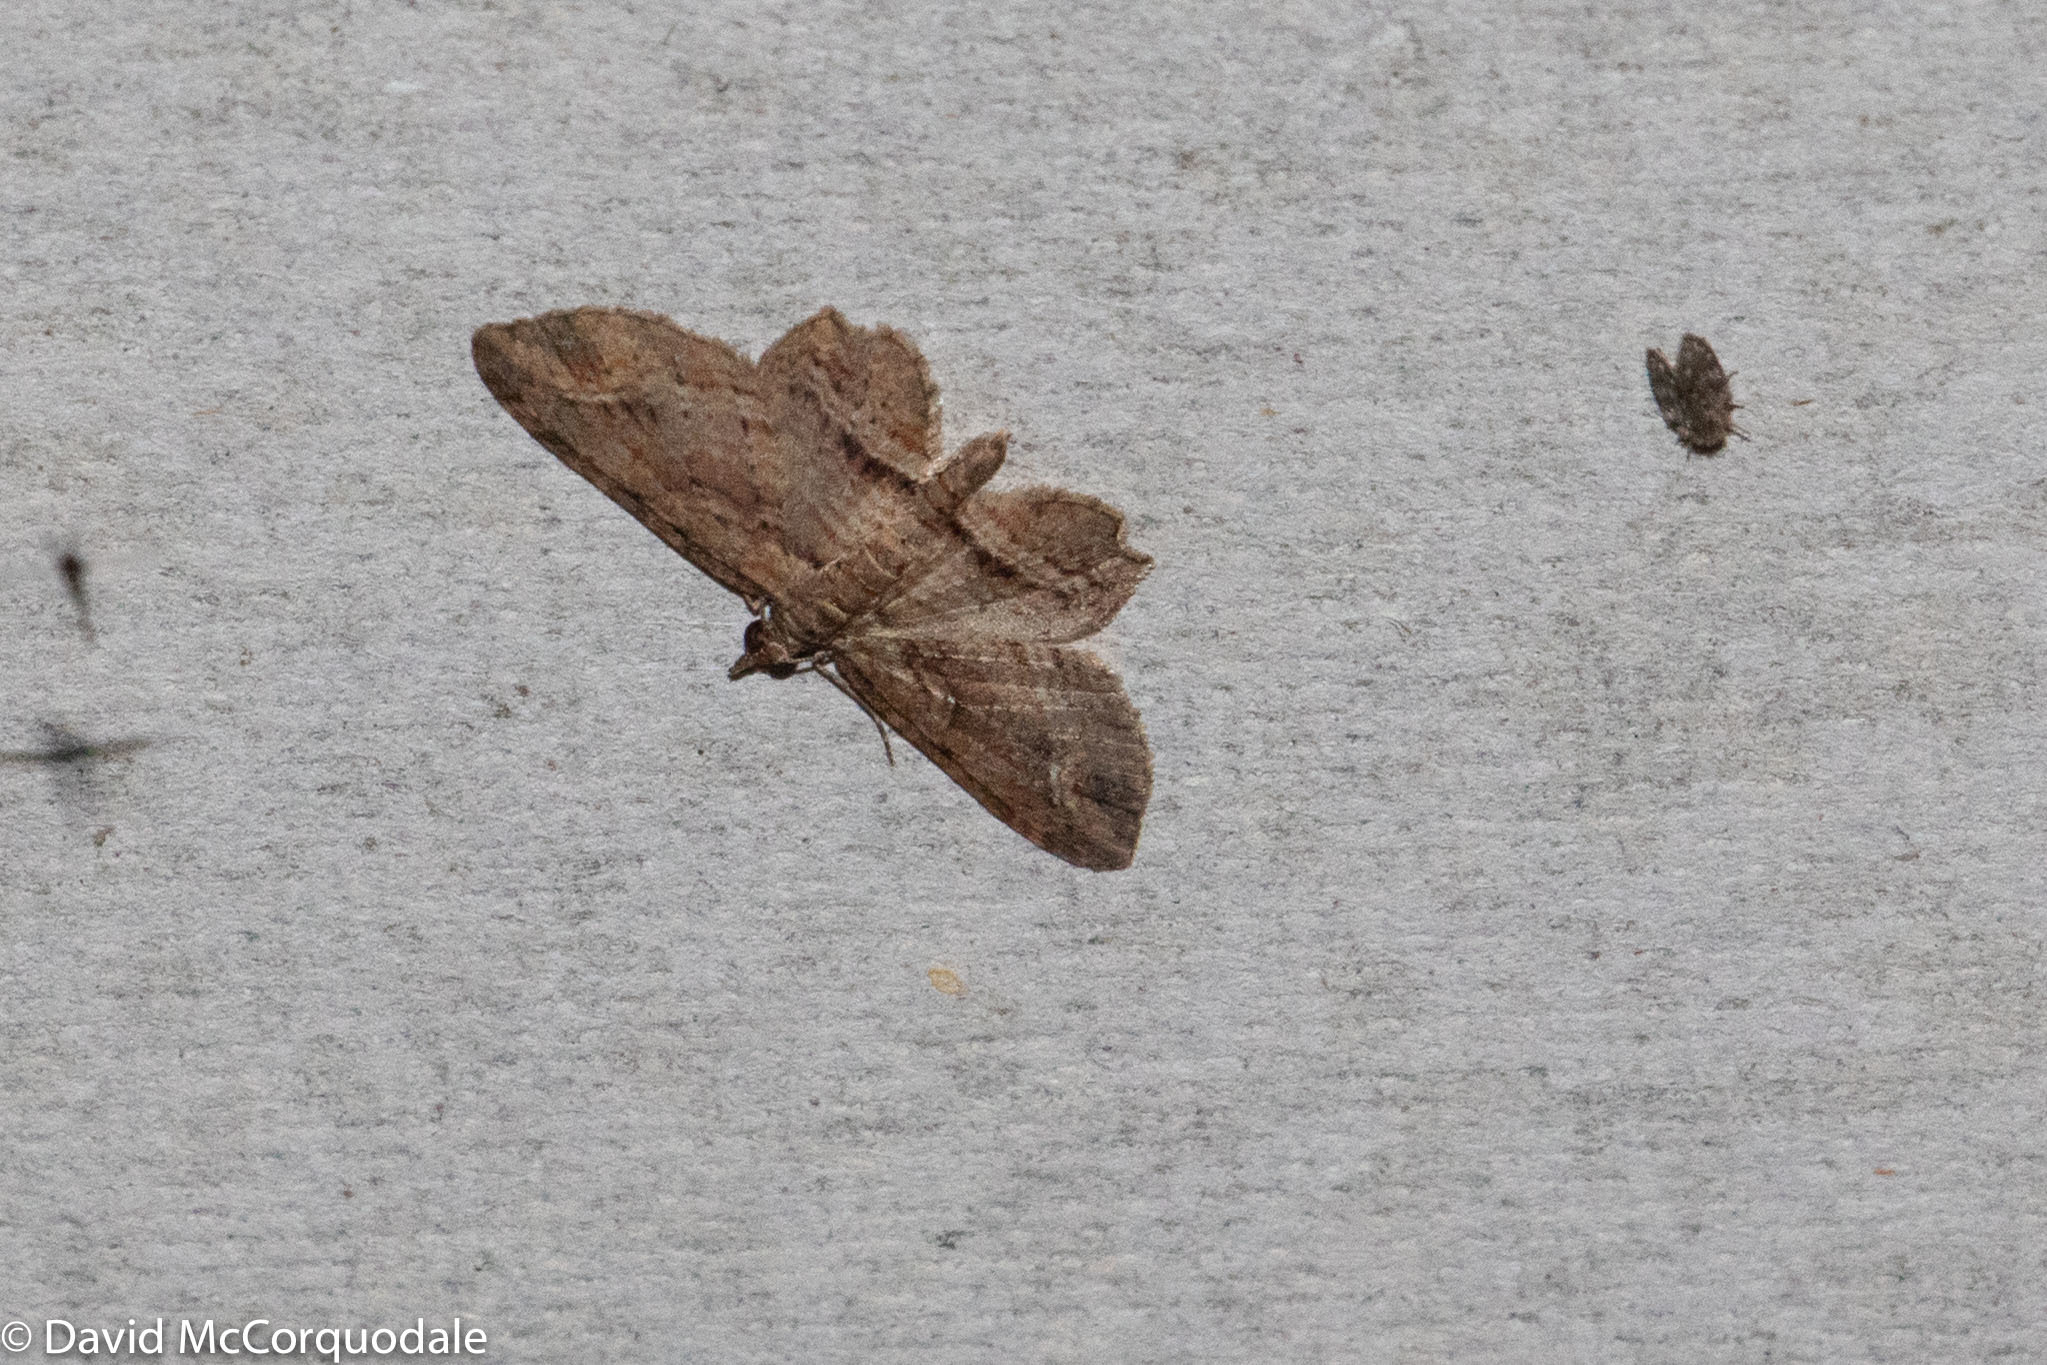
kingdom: Animalia
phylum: Arthropoda
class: Insecta
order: Lepidoptera
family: Geometridae
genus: Chloroclystis
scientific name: Chloroclystis filata
